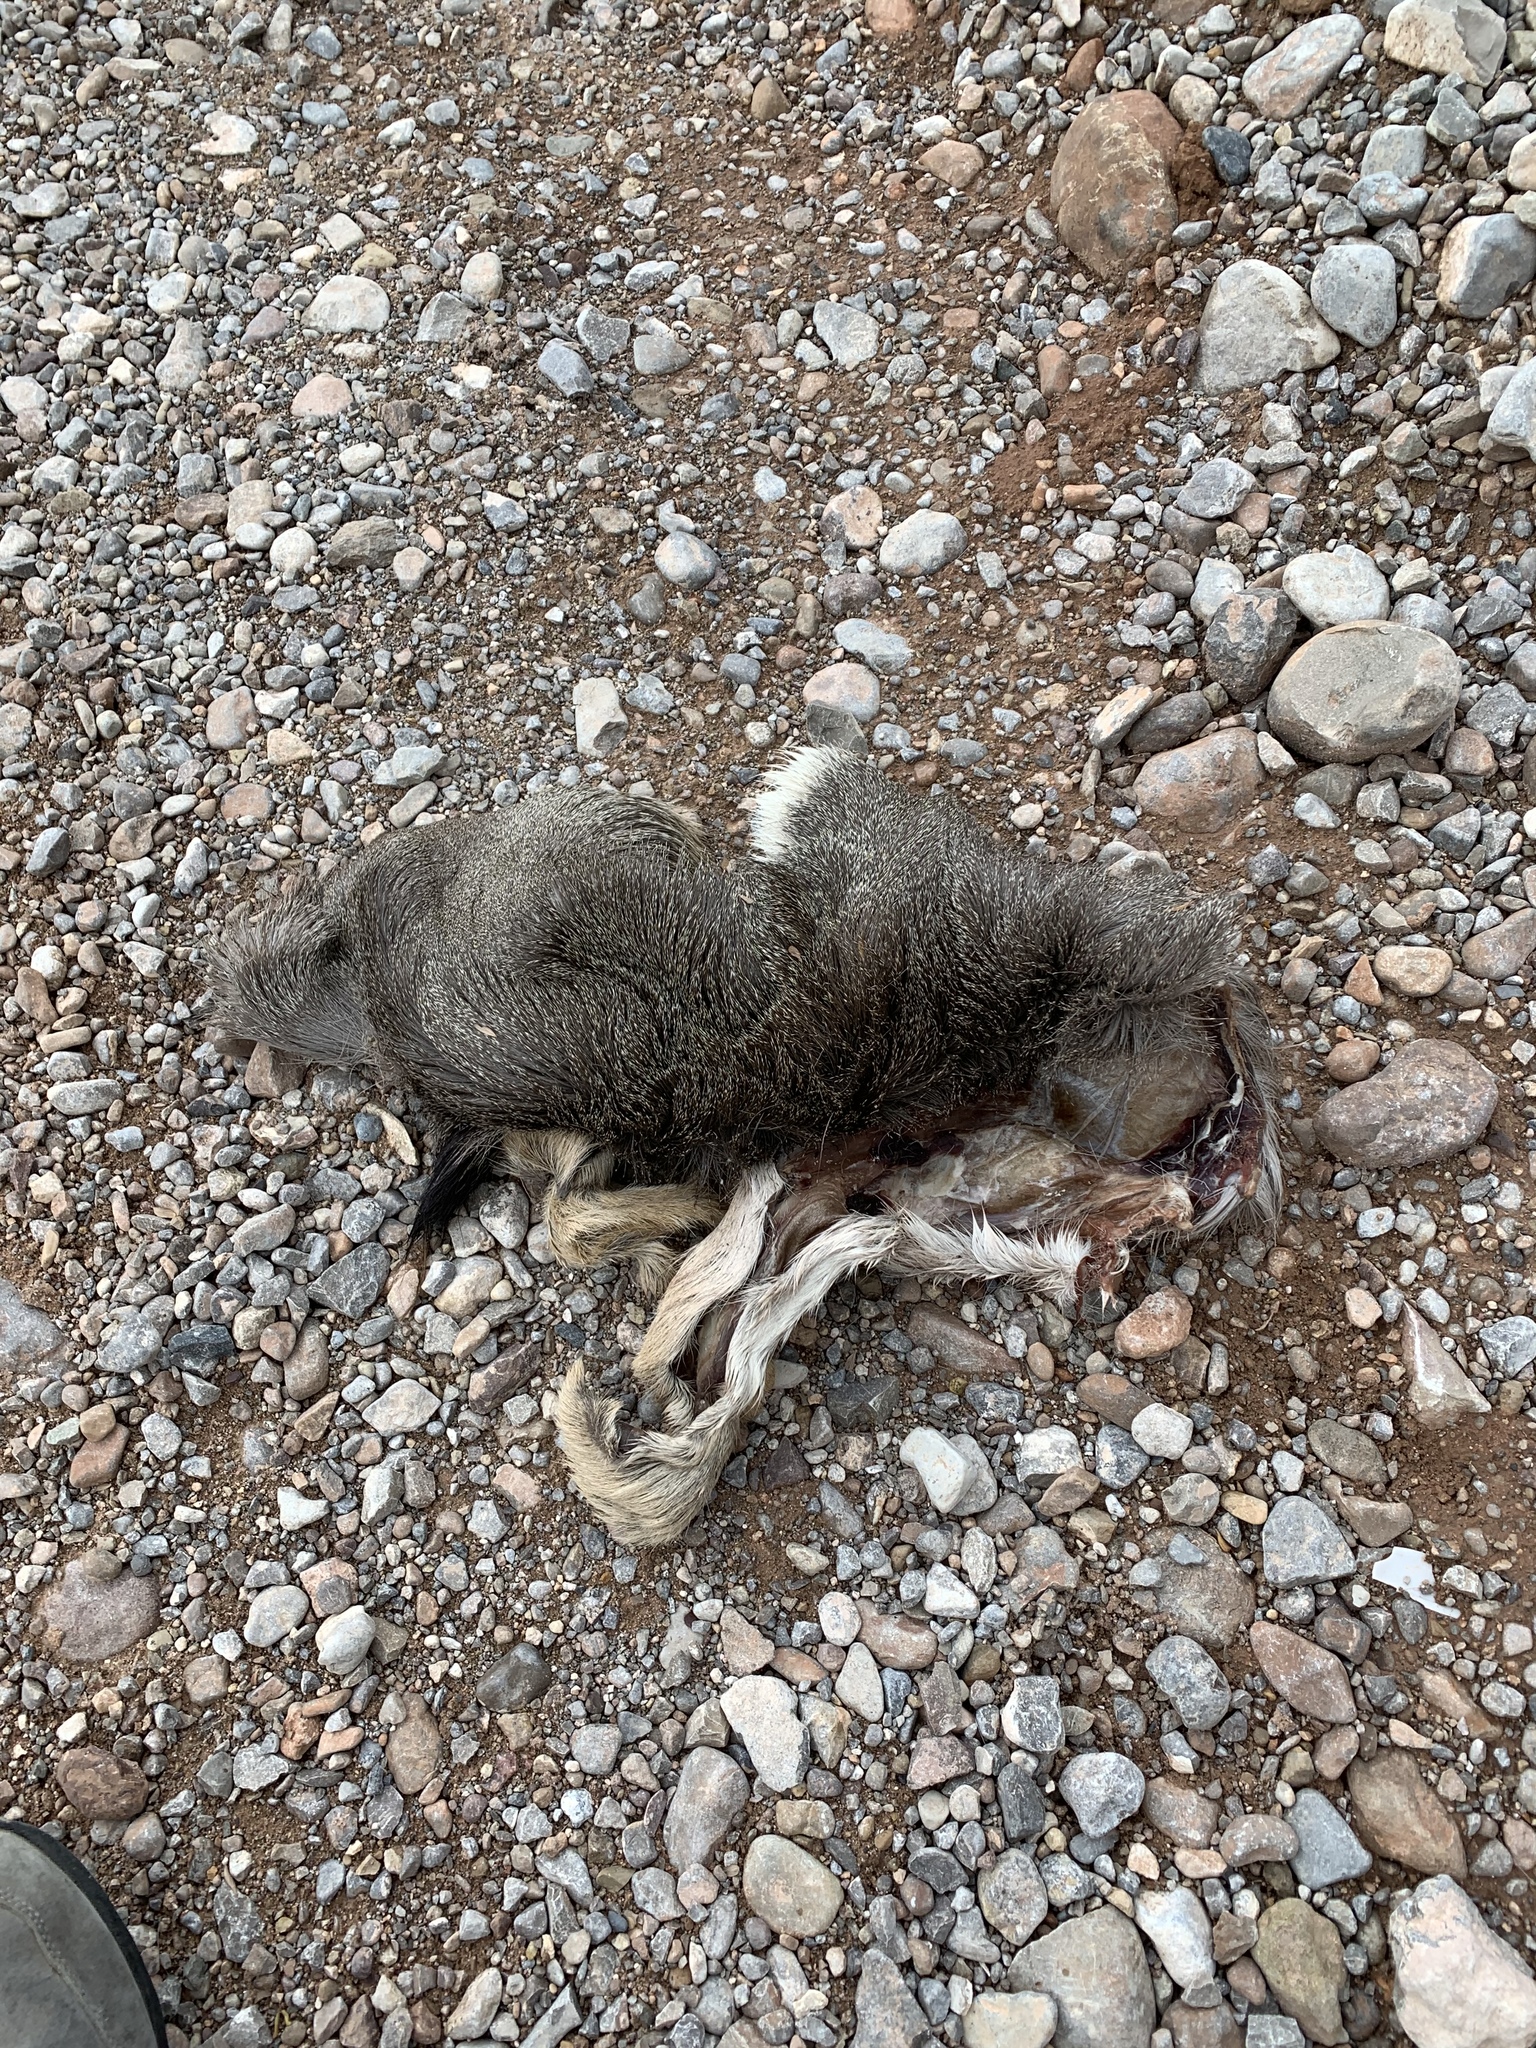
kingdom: Animalia
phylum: Chordata
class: Mammalia
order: Artiodactyla
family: Cervidae
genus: Odocoileus
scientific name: Odocoileus hemionus
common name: Mule deer
